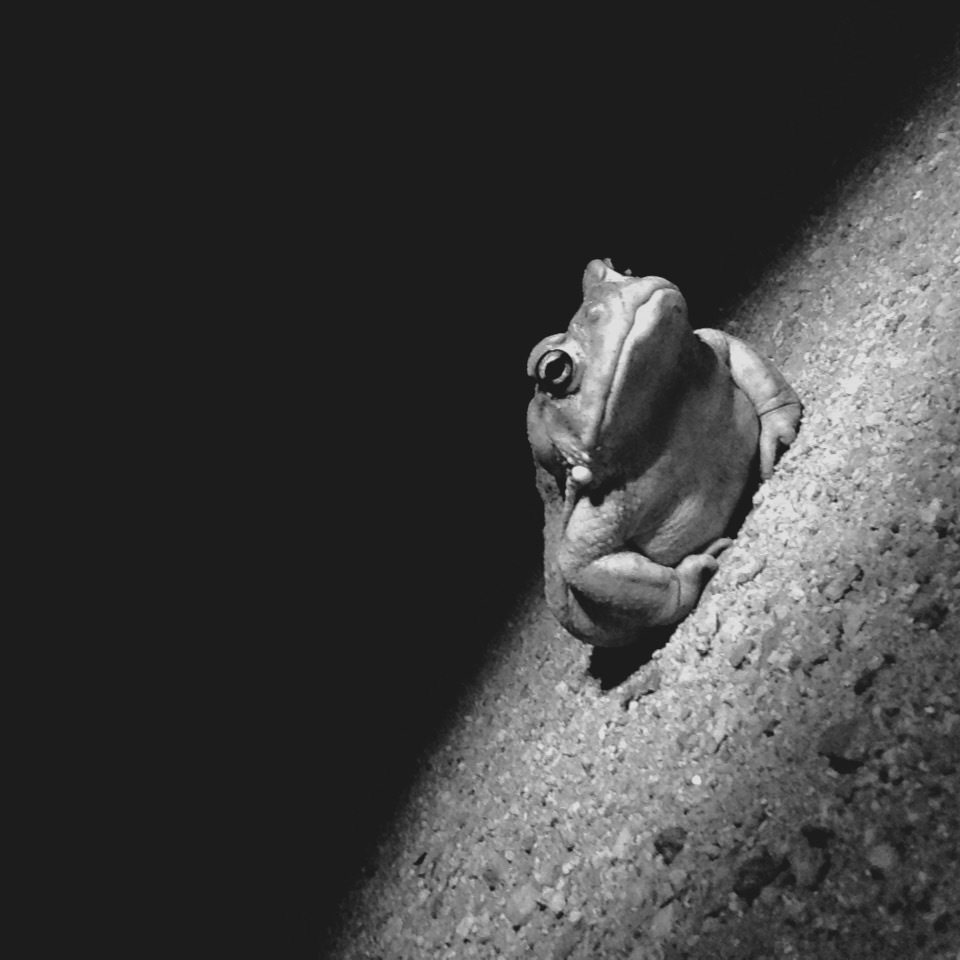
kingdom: Animalia
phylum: Chordata
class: Amphibia
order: Anura
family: Bufonidae
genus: Incilius
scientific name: Incilius alvarius
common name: Sonoran desert toad
